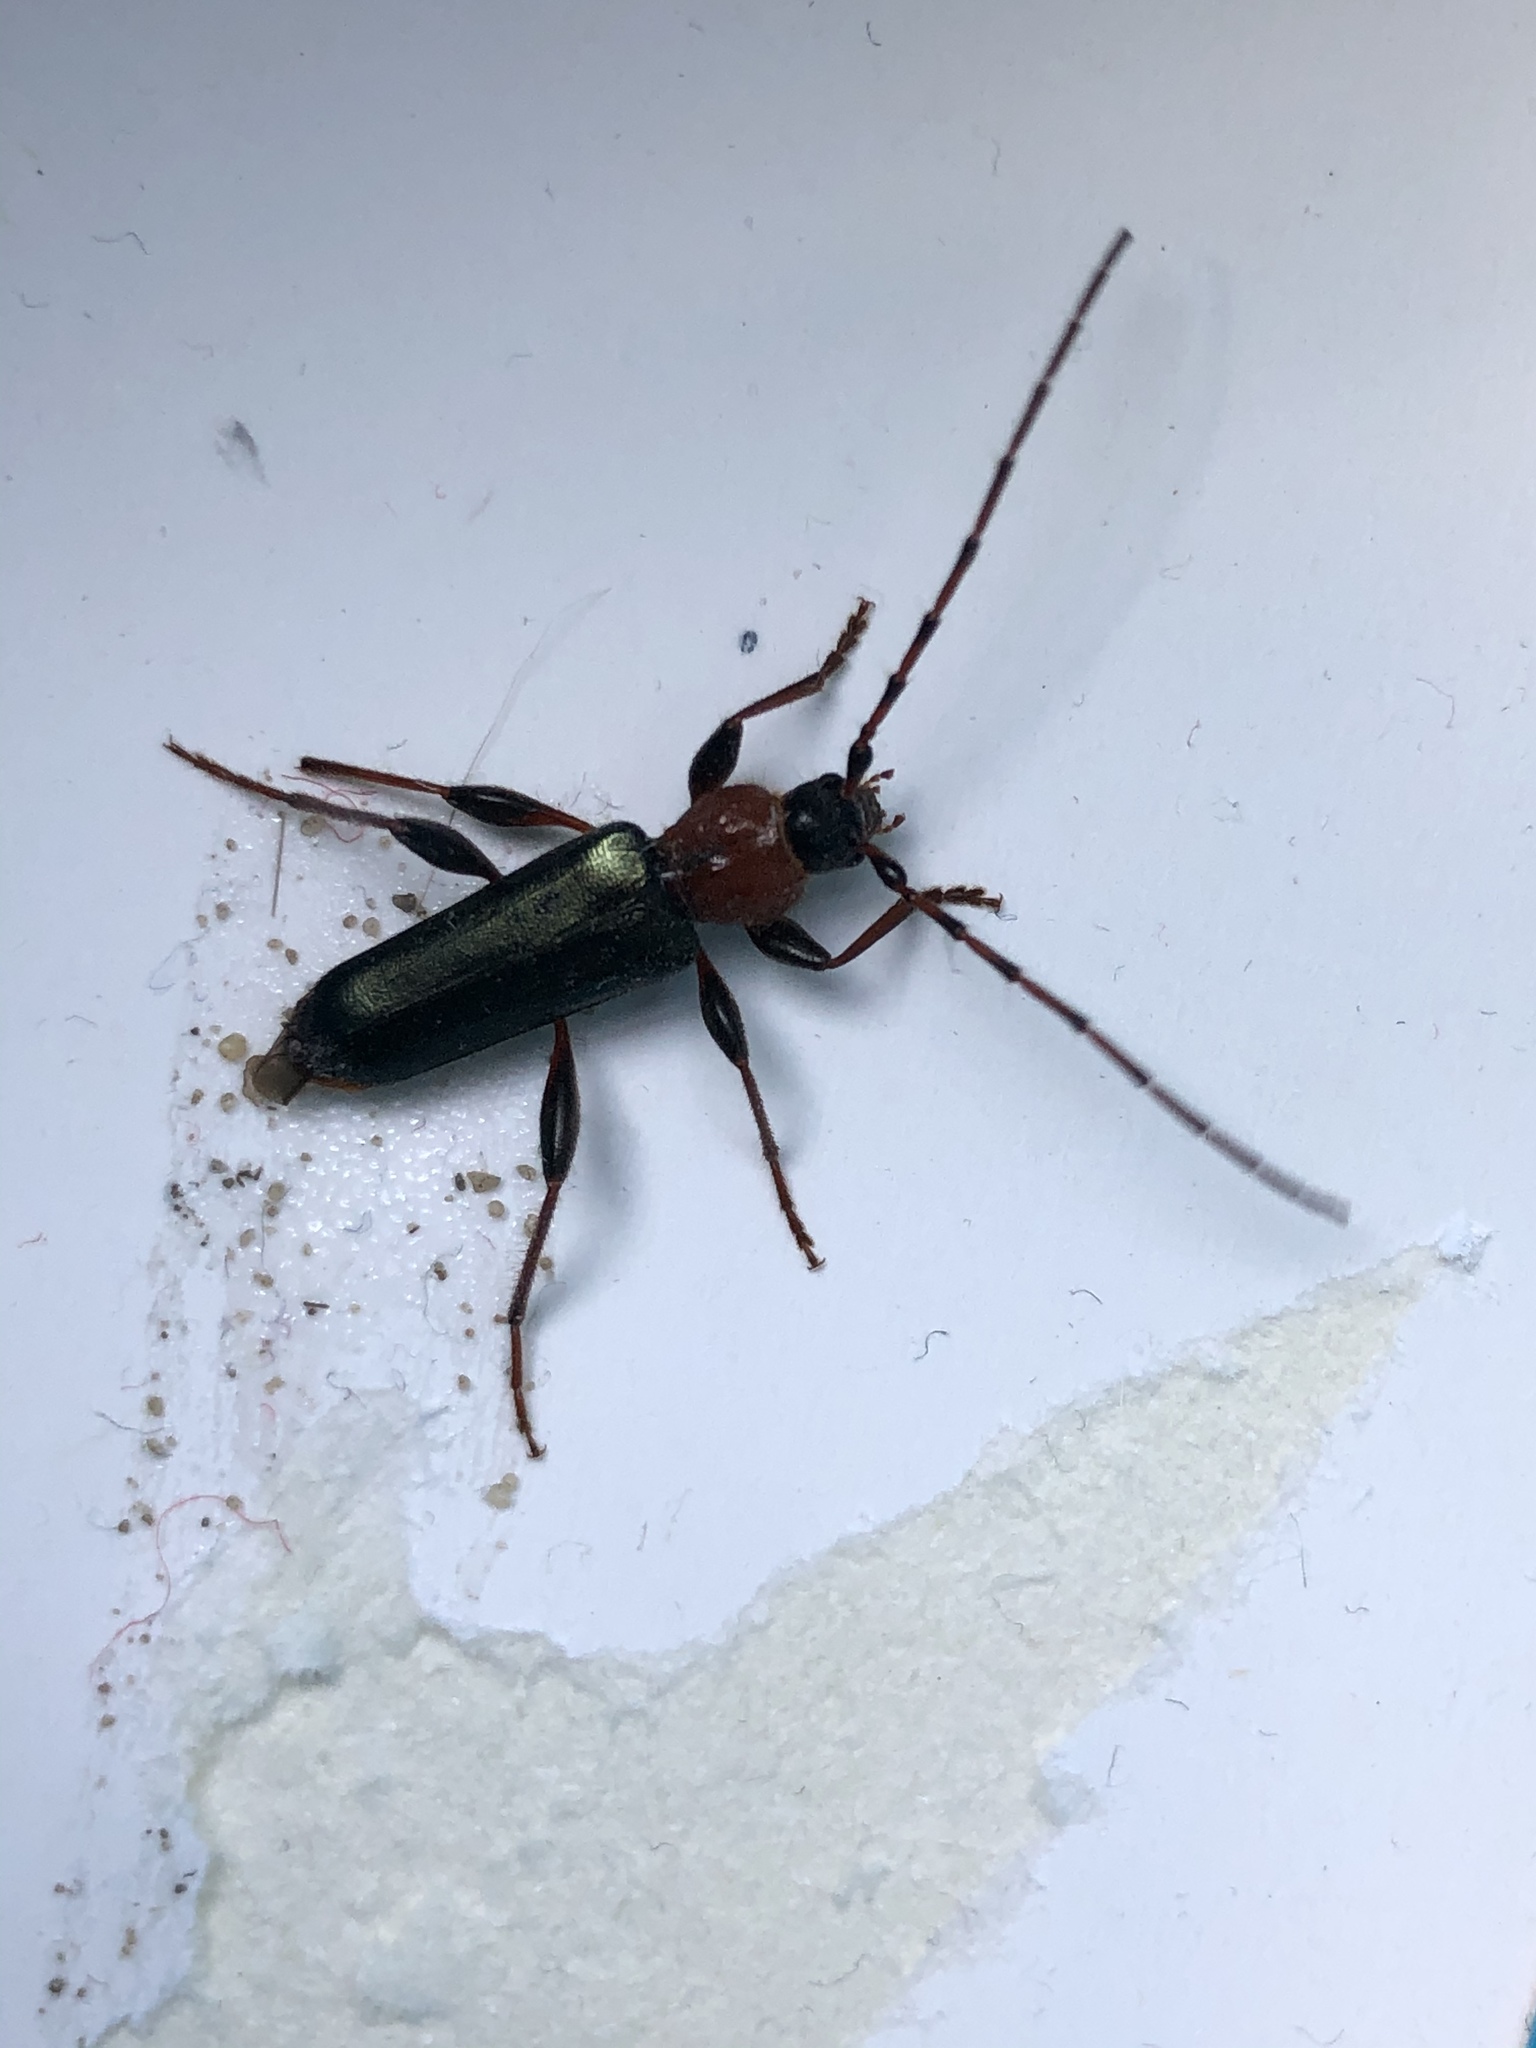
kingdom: Animalia
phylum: Arthropoda
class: Insecta
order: Coleoptera
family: Cerambycidae
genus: Phymatodes
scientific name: Phymatodes testaceus
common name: Long-horned beetle
